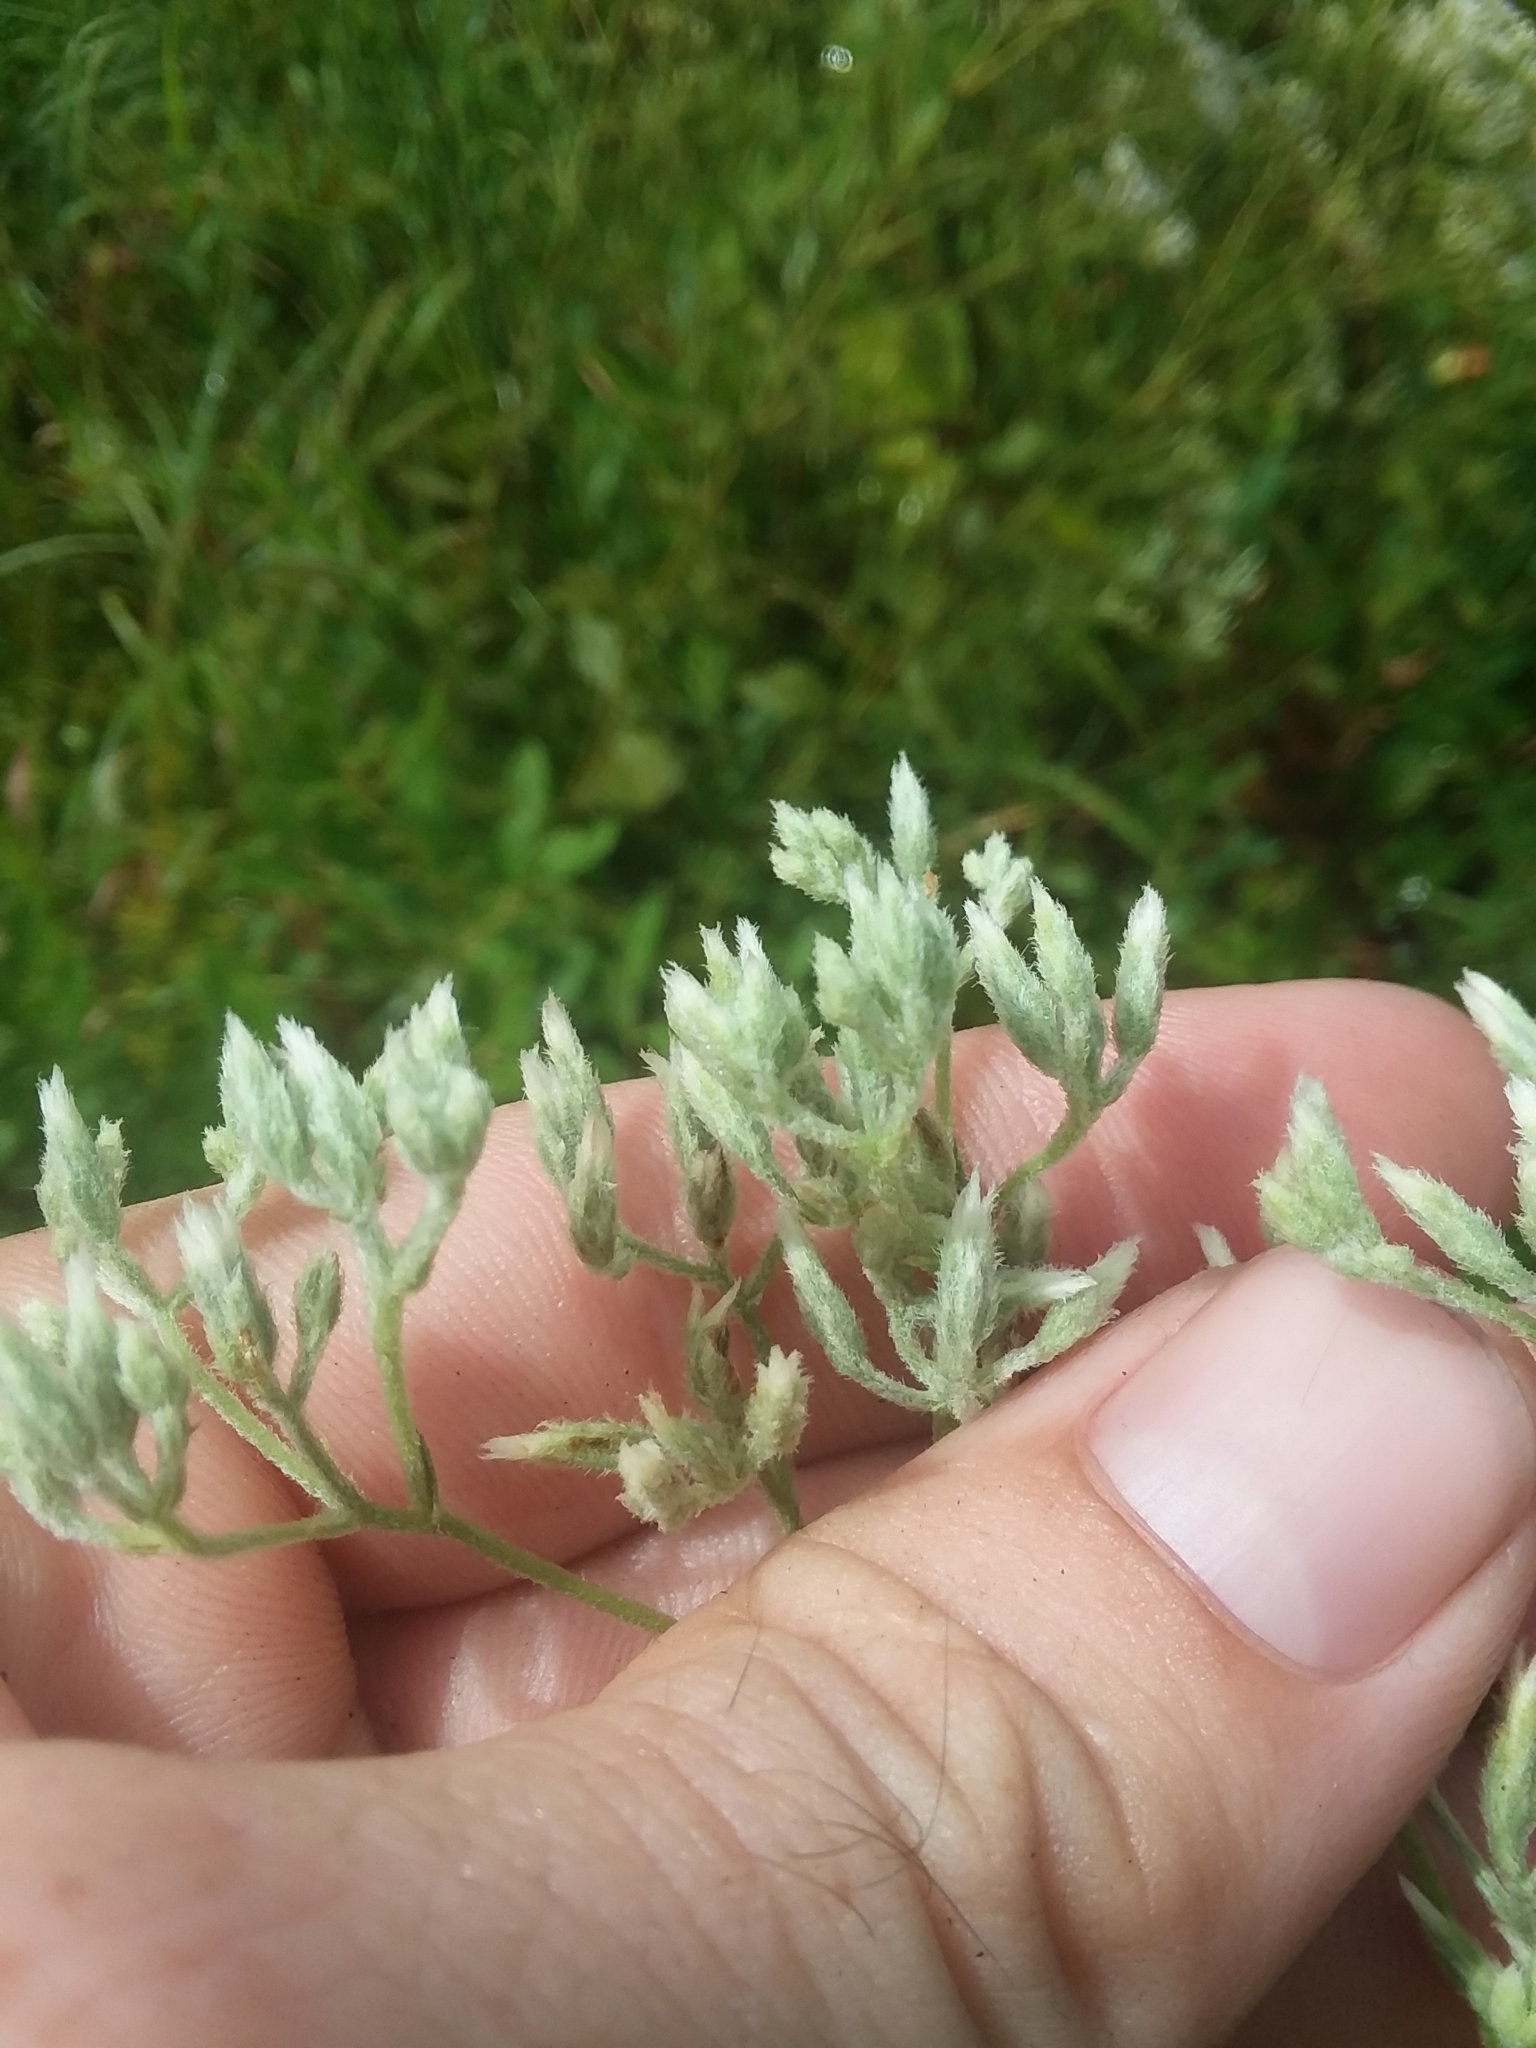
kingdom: Plantae
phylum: Tracheophyta
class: Magnoliopsida
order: Asterales
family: Asteraceae
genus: Eupatorium
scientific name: Eupatorium leucolepis
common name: Justiceweed
